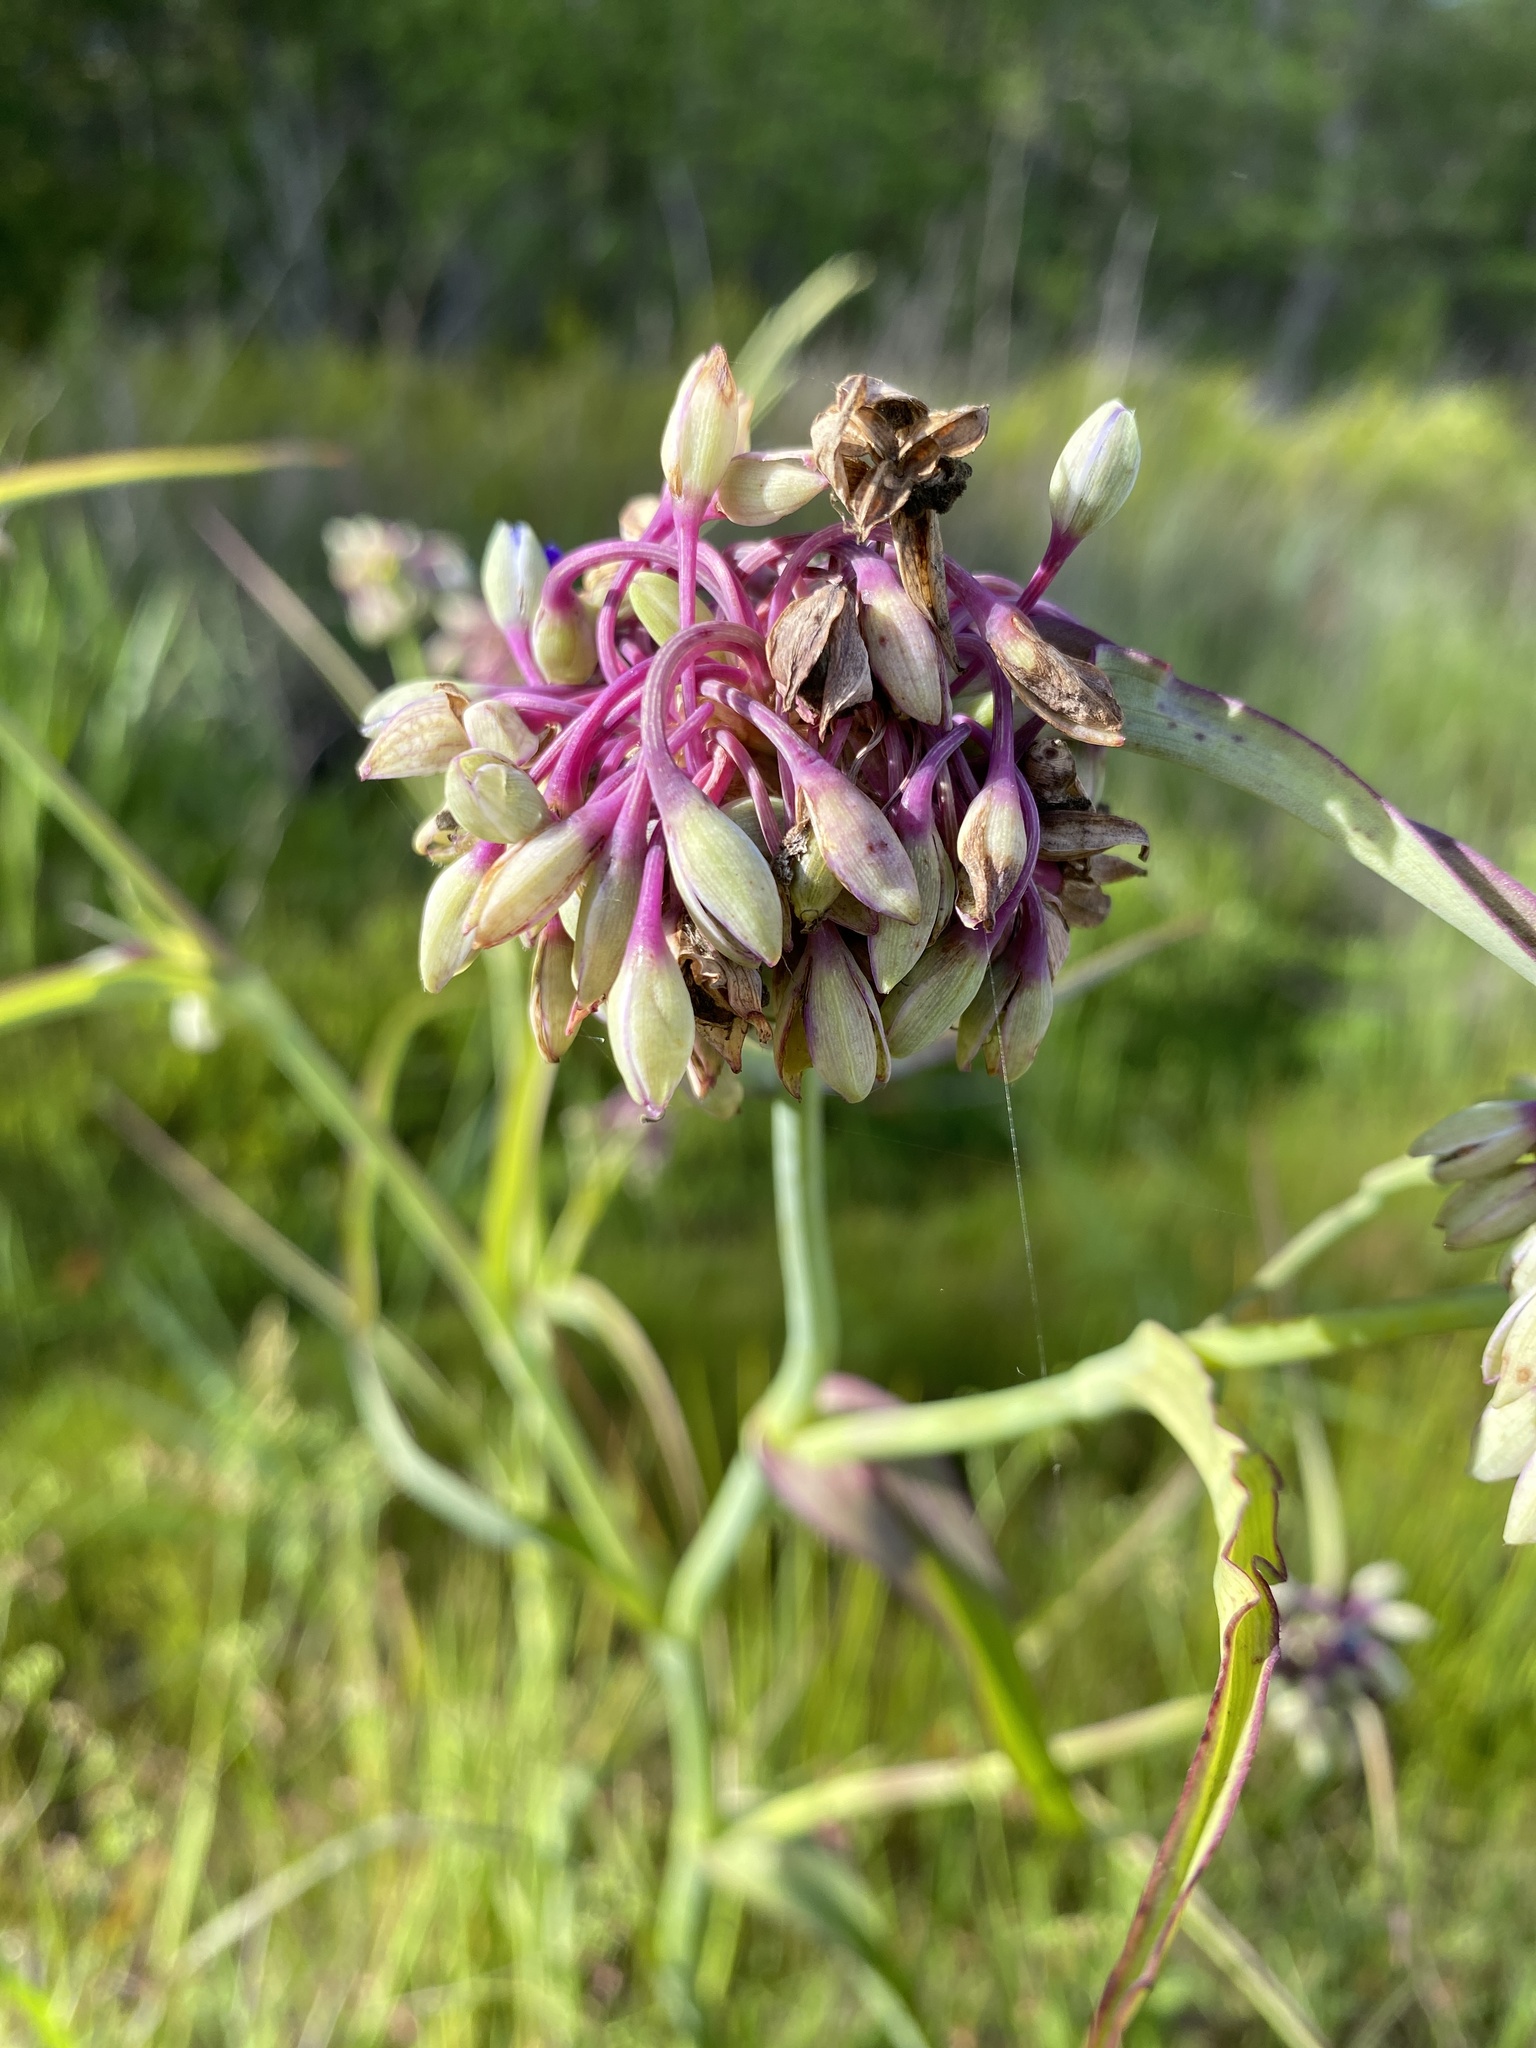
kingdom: Plantae
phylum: Tracheophyta
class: Liliopsida
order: Commelinales
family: Commelinaceae
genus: Tradescantia
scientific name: Tradescantia ohiensis
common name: Ohio spiderwort
